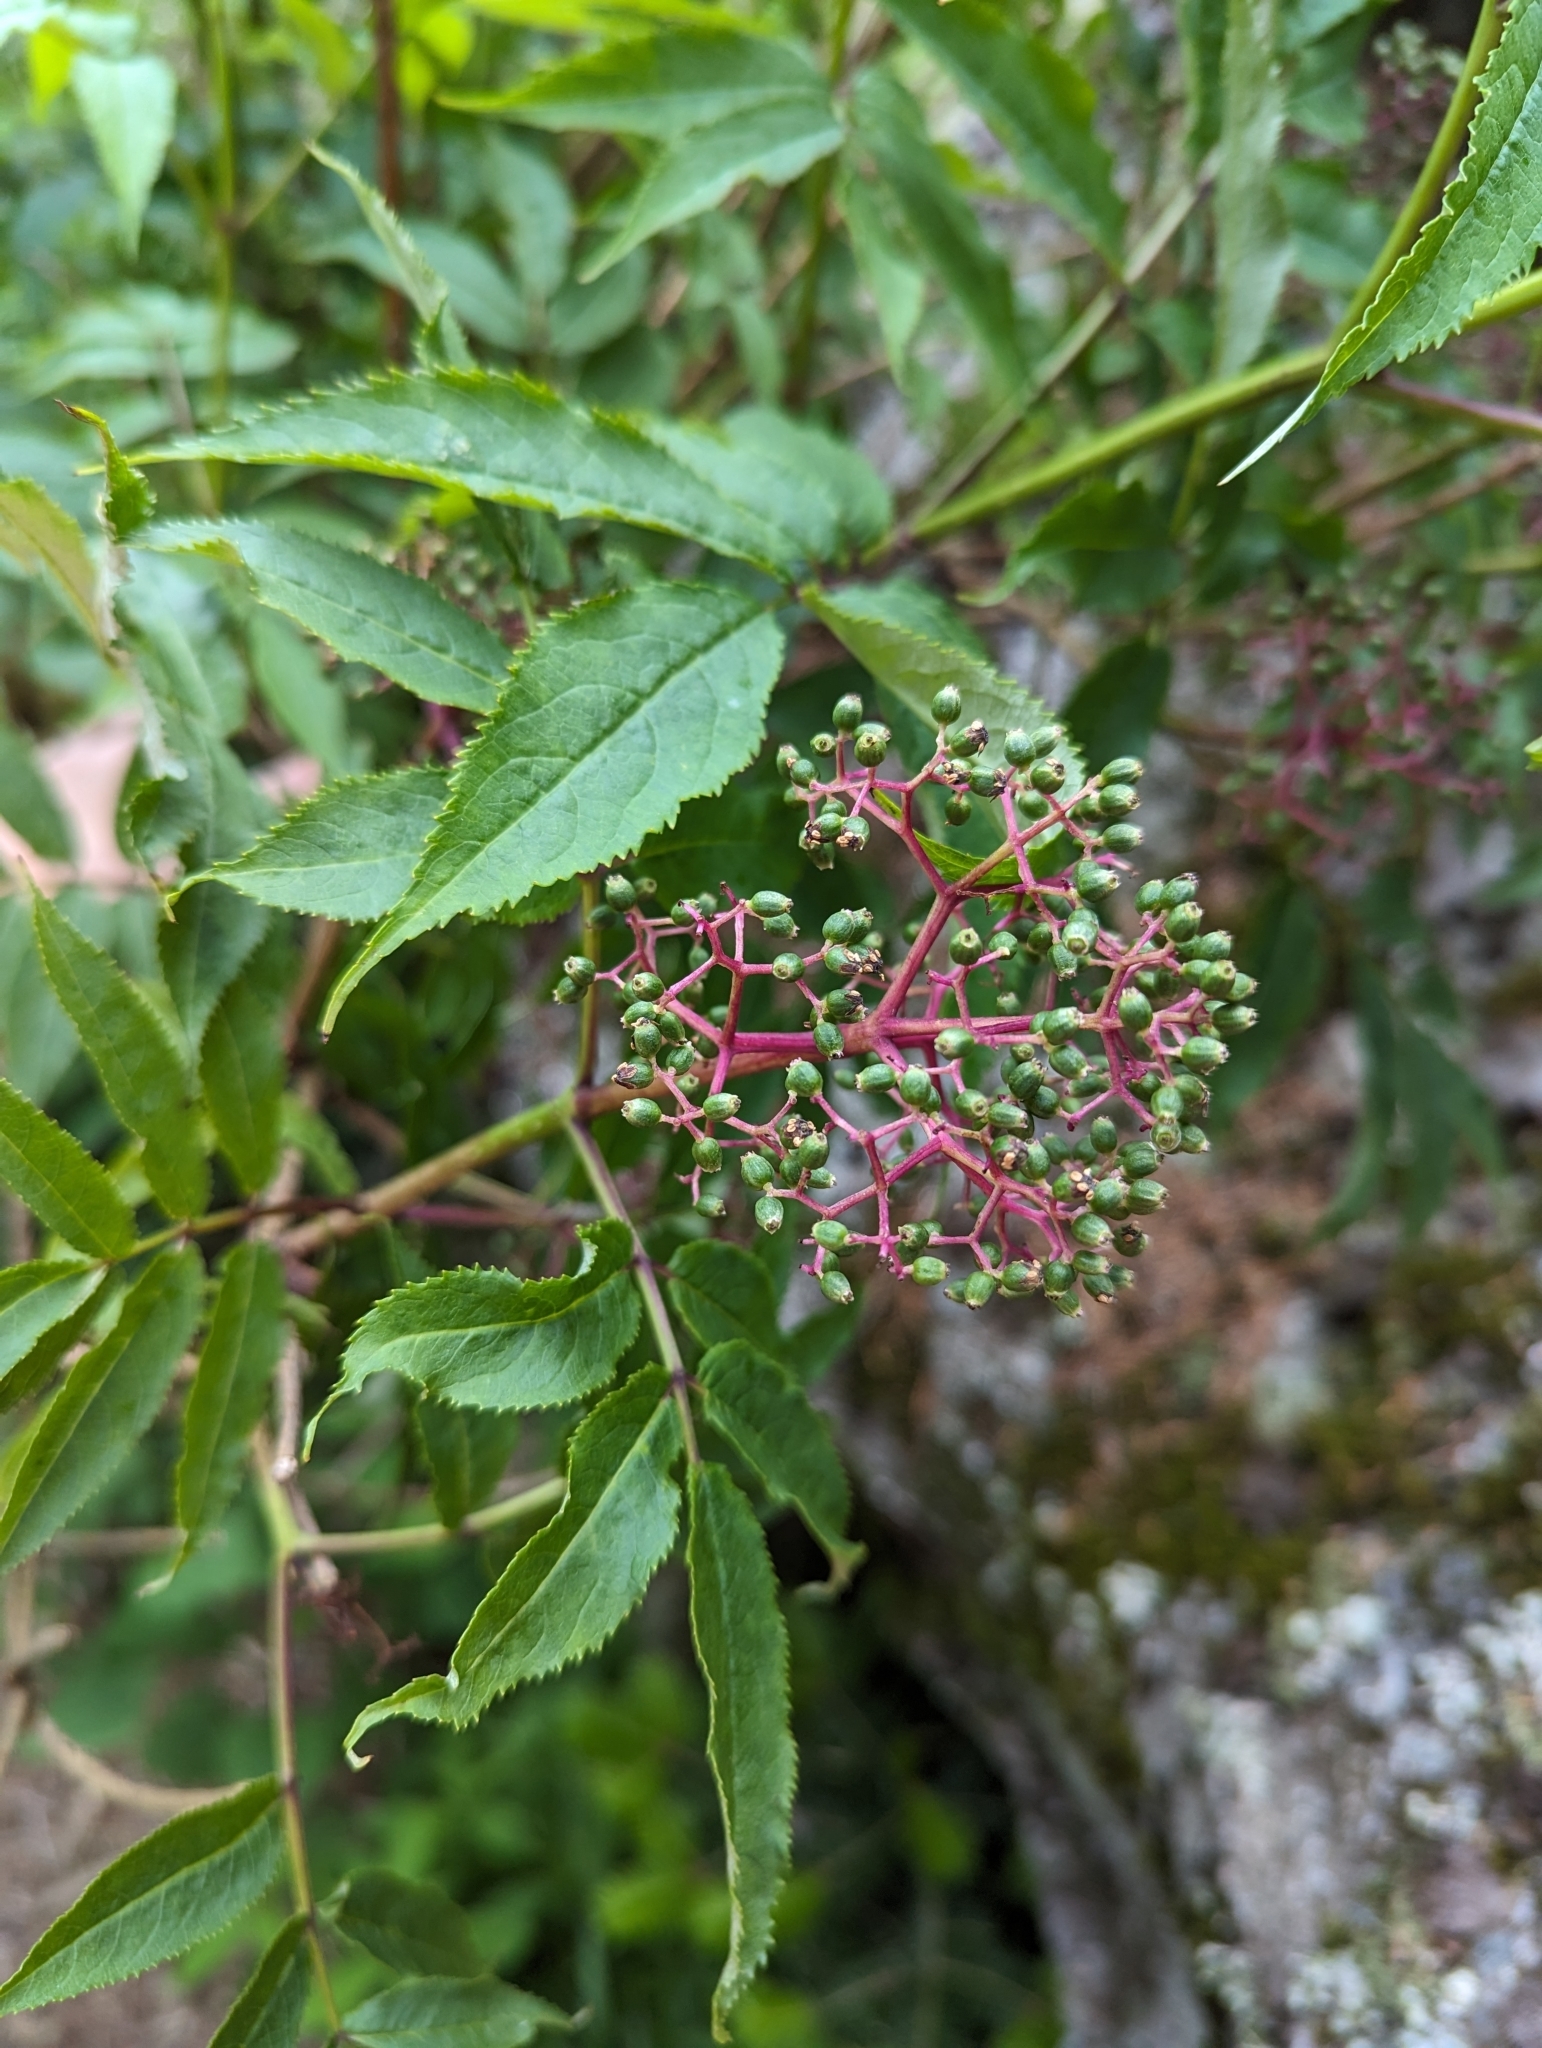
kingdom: Plantae
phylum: Tracheophyta
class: Magnoliopsida
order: Dipsacales
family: Viburnaceae
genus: Sambucus
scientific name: Sambucus racemosa
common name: Red-berried elder
